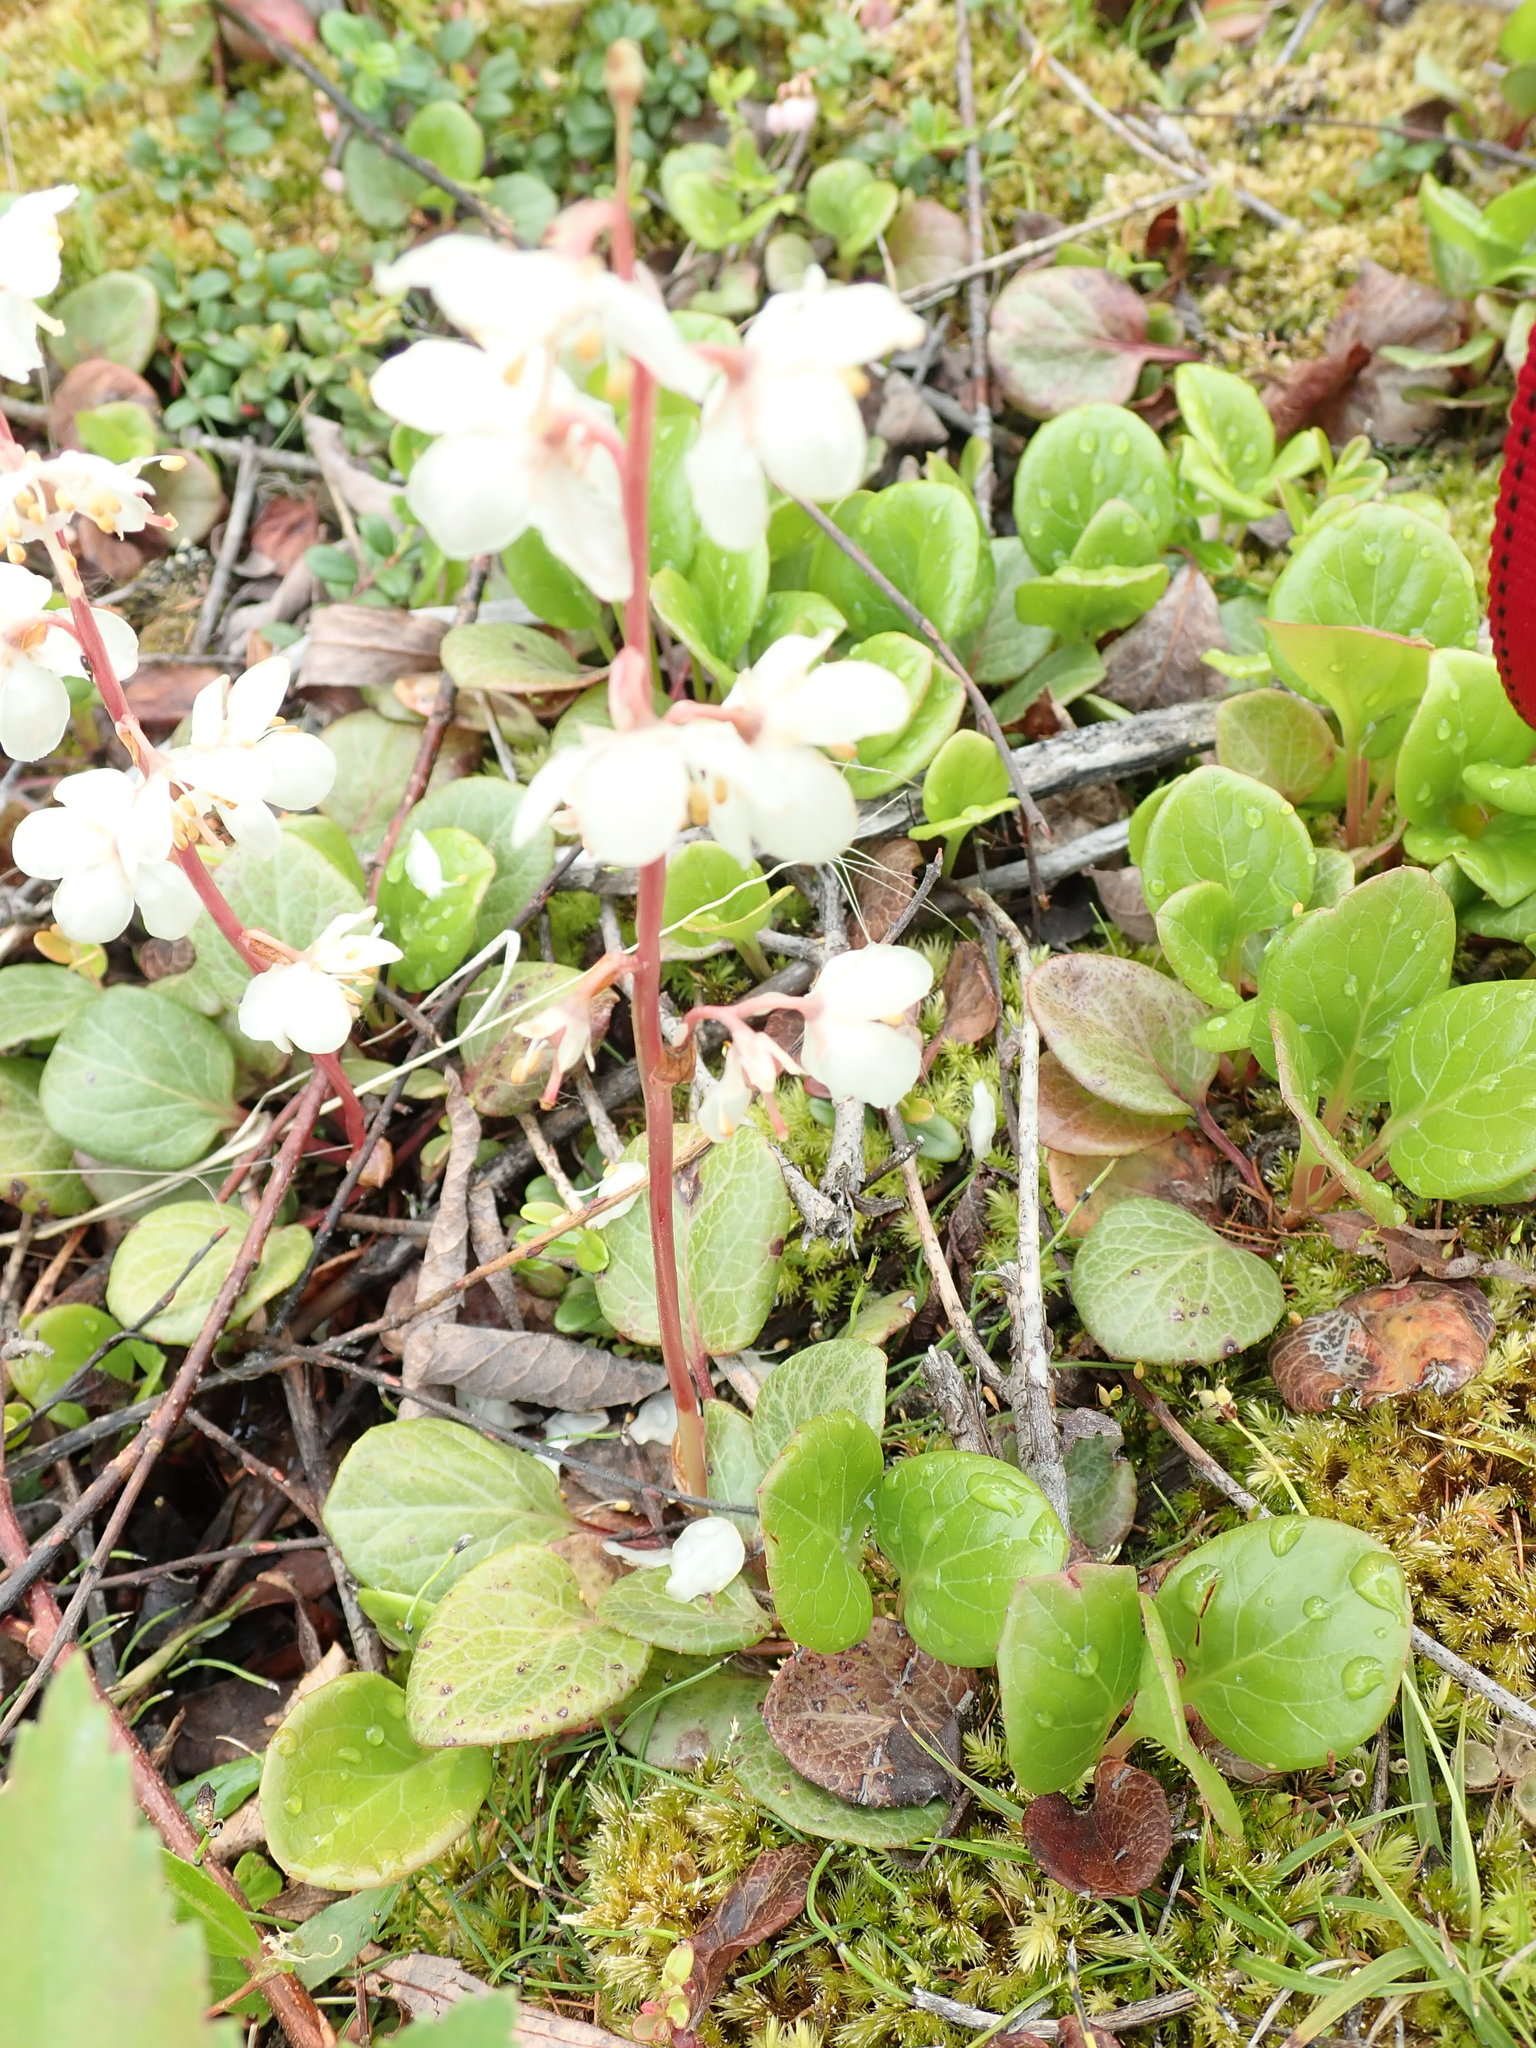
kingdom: Plantae
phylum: Tracheophyta
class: Magnoliopsida
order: Ericales
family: Ericaceae
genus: Pyrola
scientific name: Pyrola grandiflora
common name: Arctic pyrola
